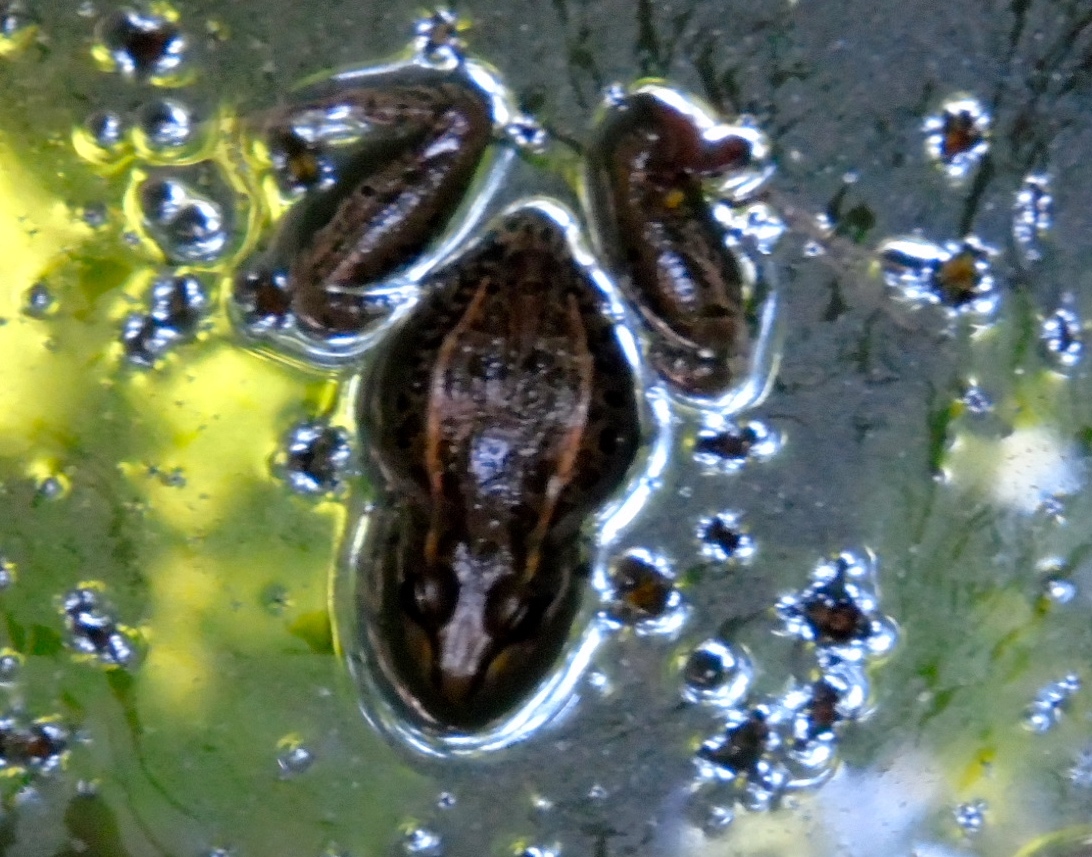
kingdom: Animalia
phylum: Chordata
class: Amphibia
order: Anura
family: Ranidae
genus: Lithobates
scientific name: Lithobates
